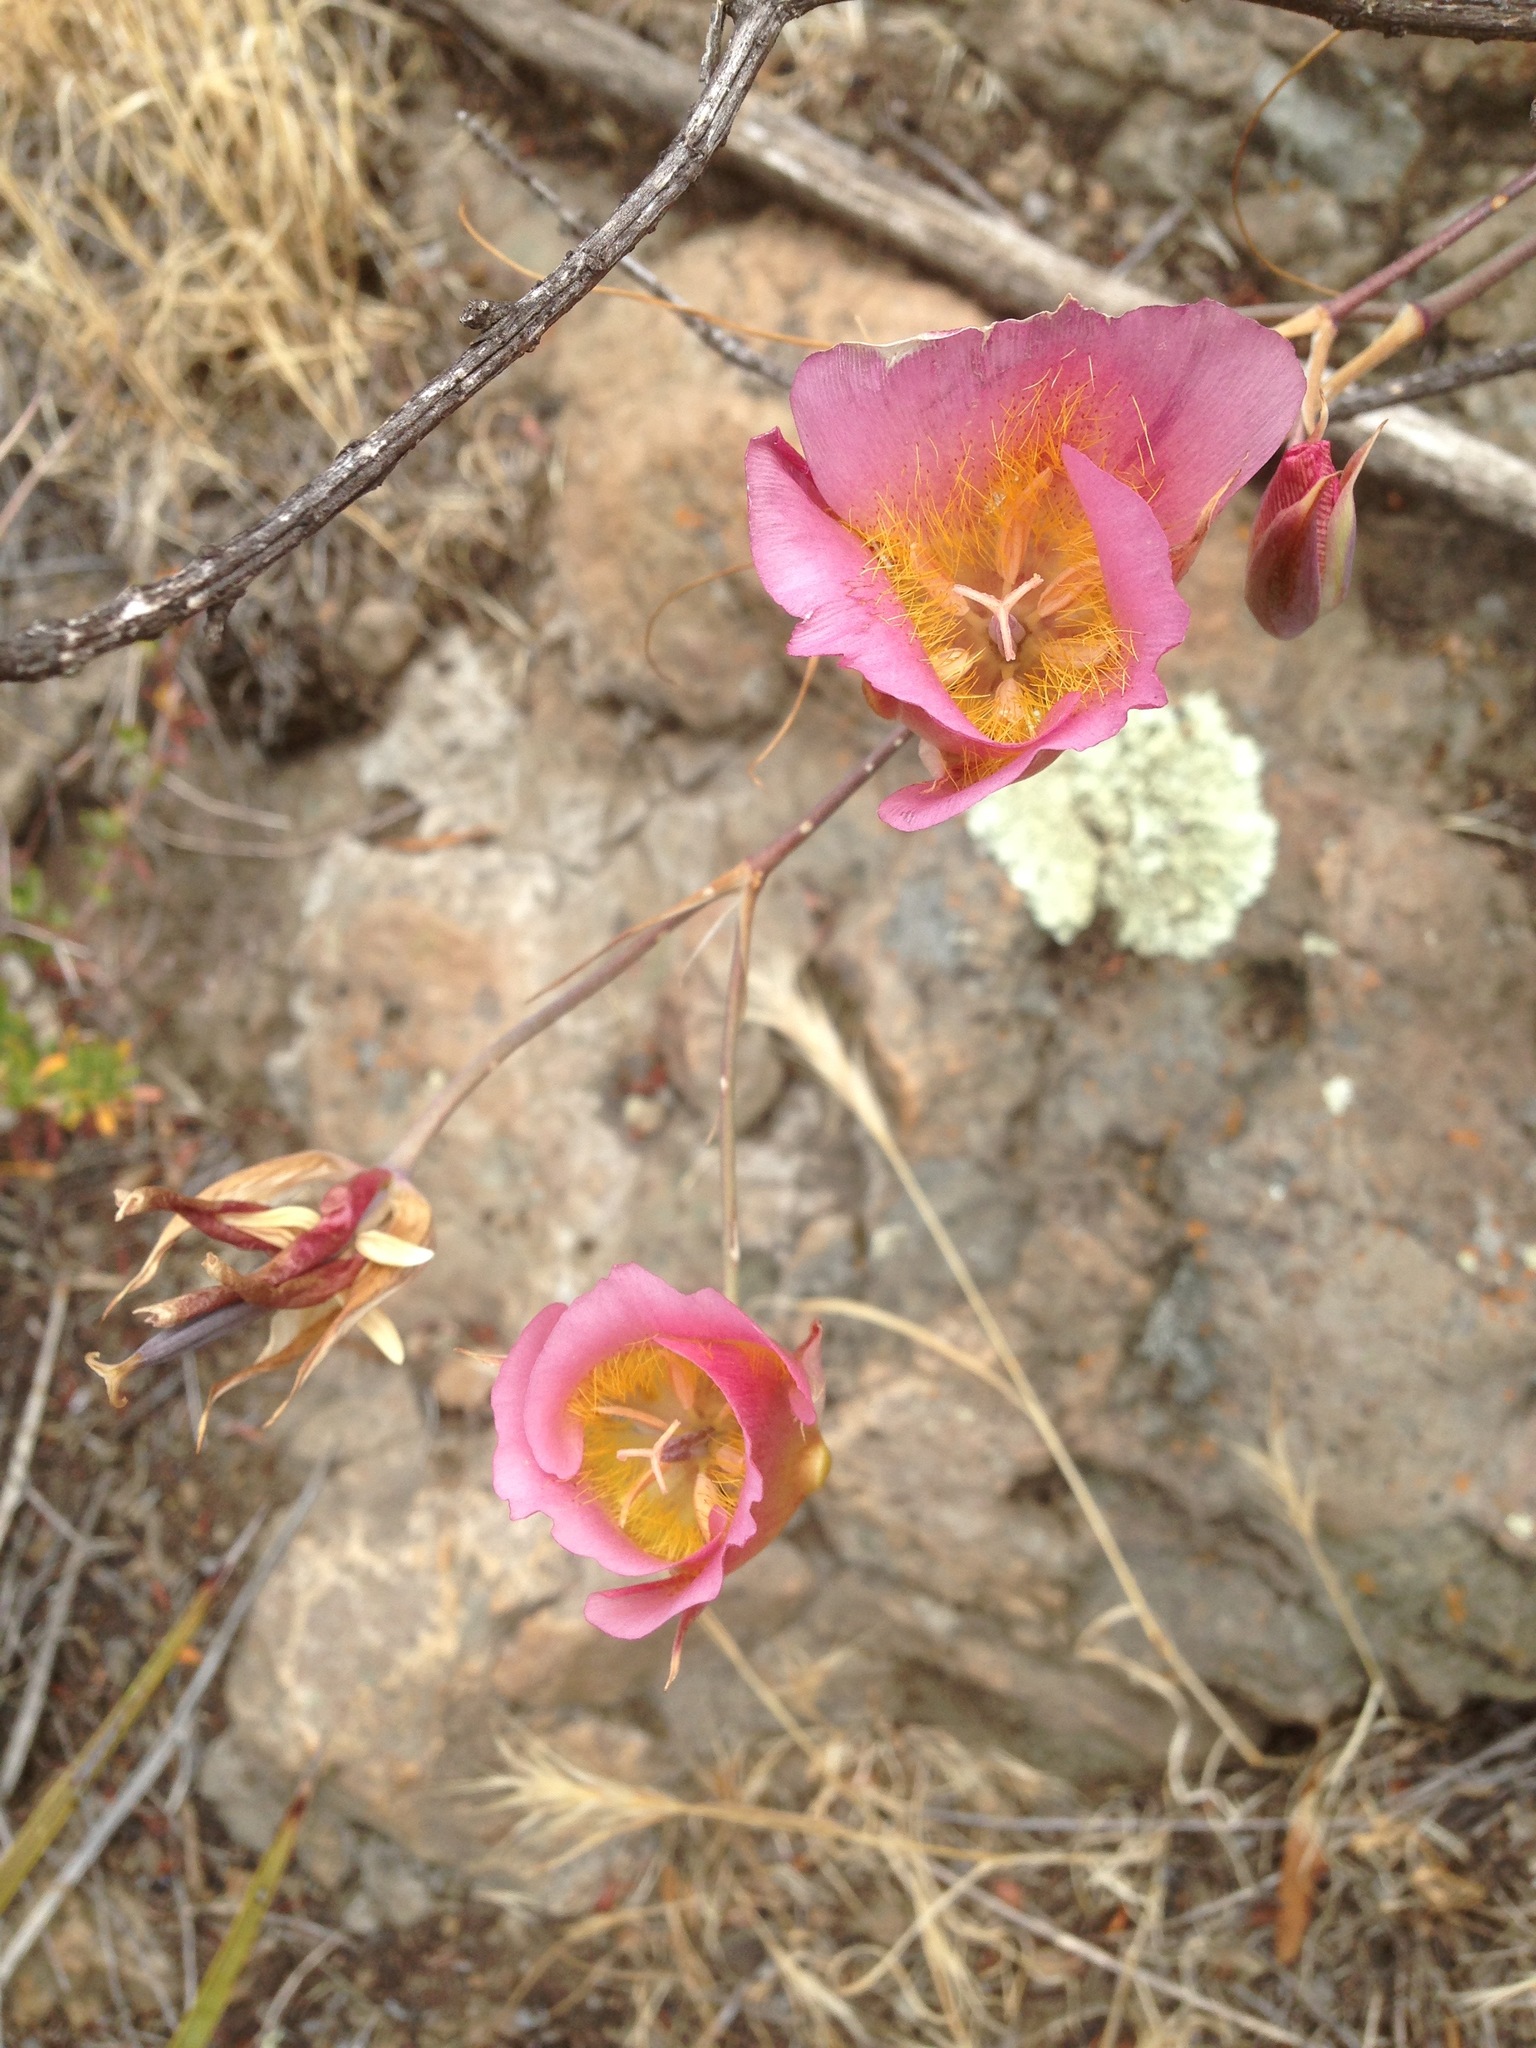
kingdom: Plantae
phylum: Tracheophyta
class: Liliopsida
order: Liliales
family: Liliaceae
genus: Calochortus
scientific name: Calochortus plummerae
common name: Plummer's mariposa-lily
